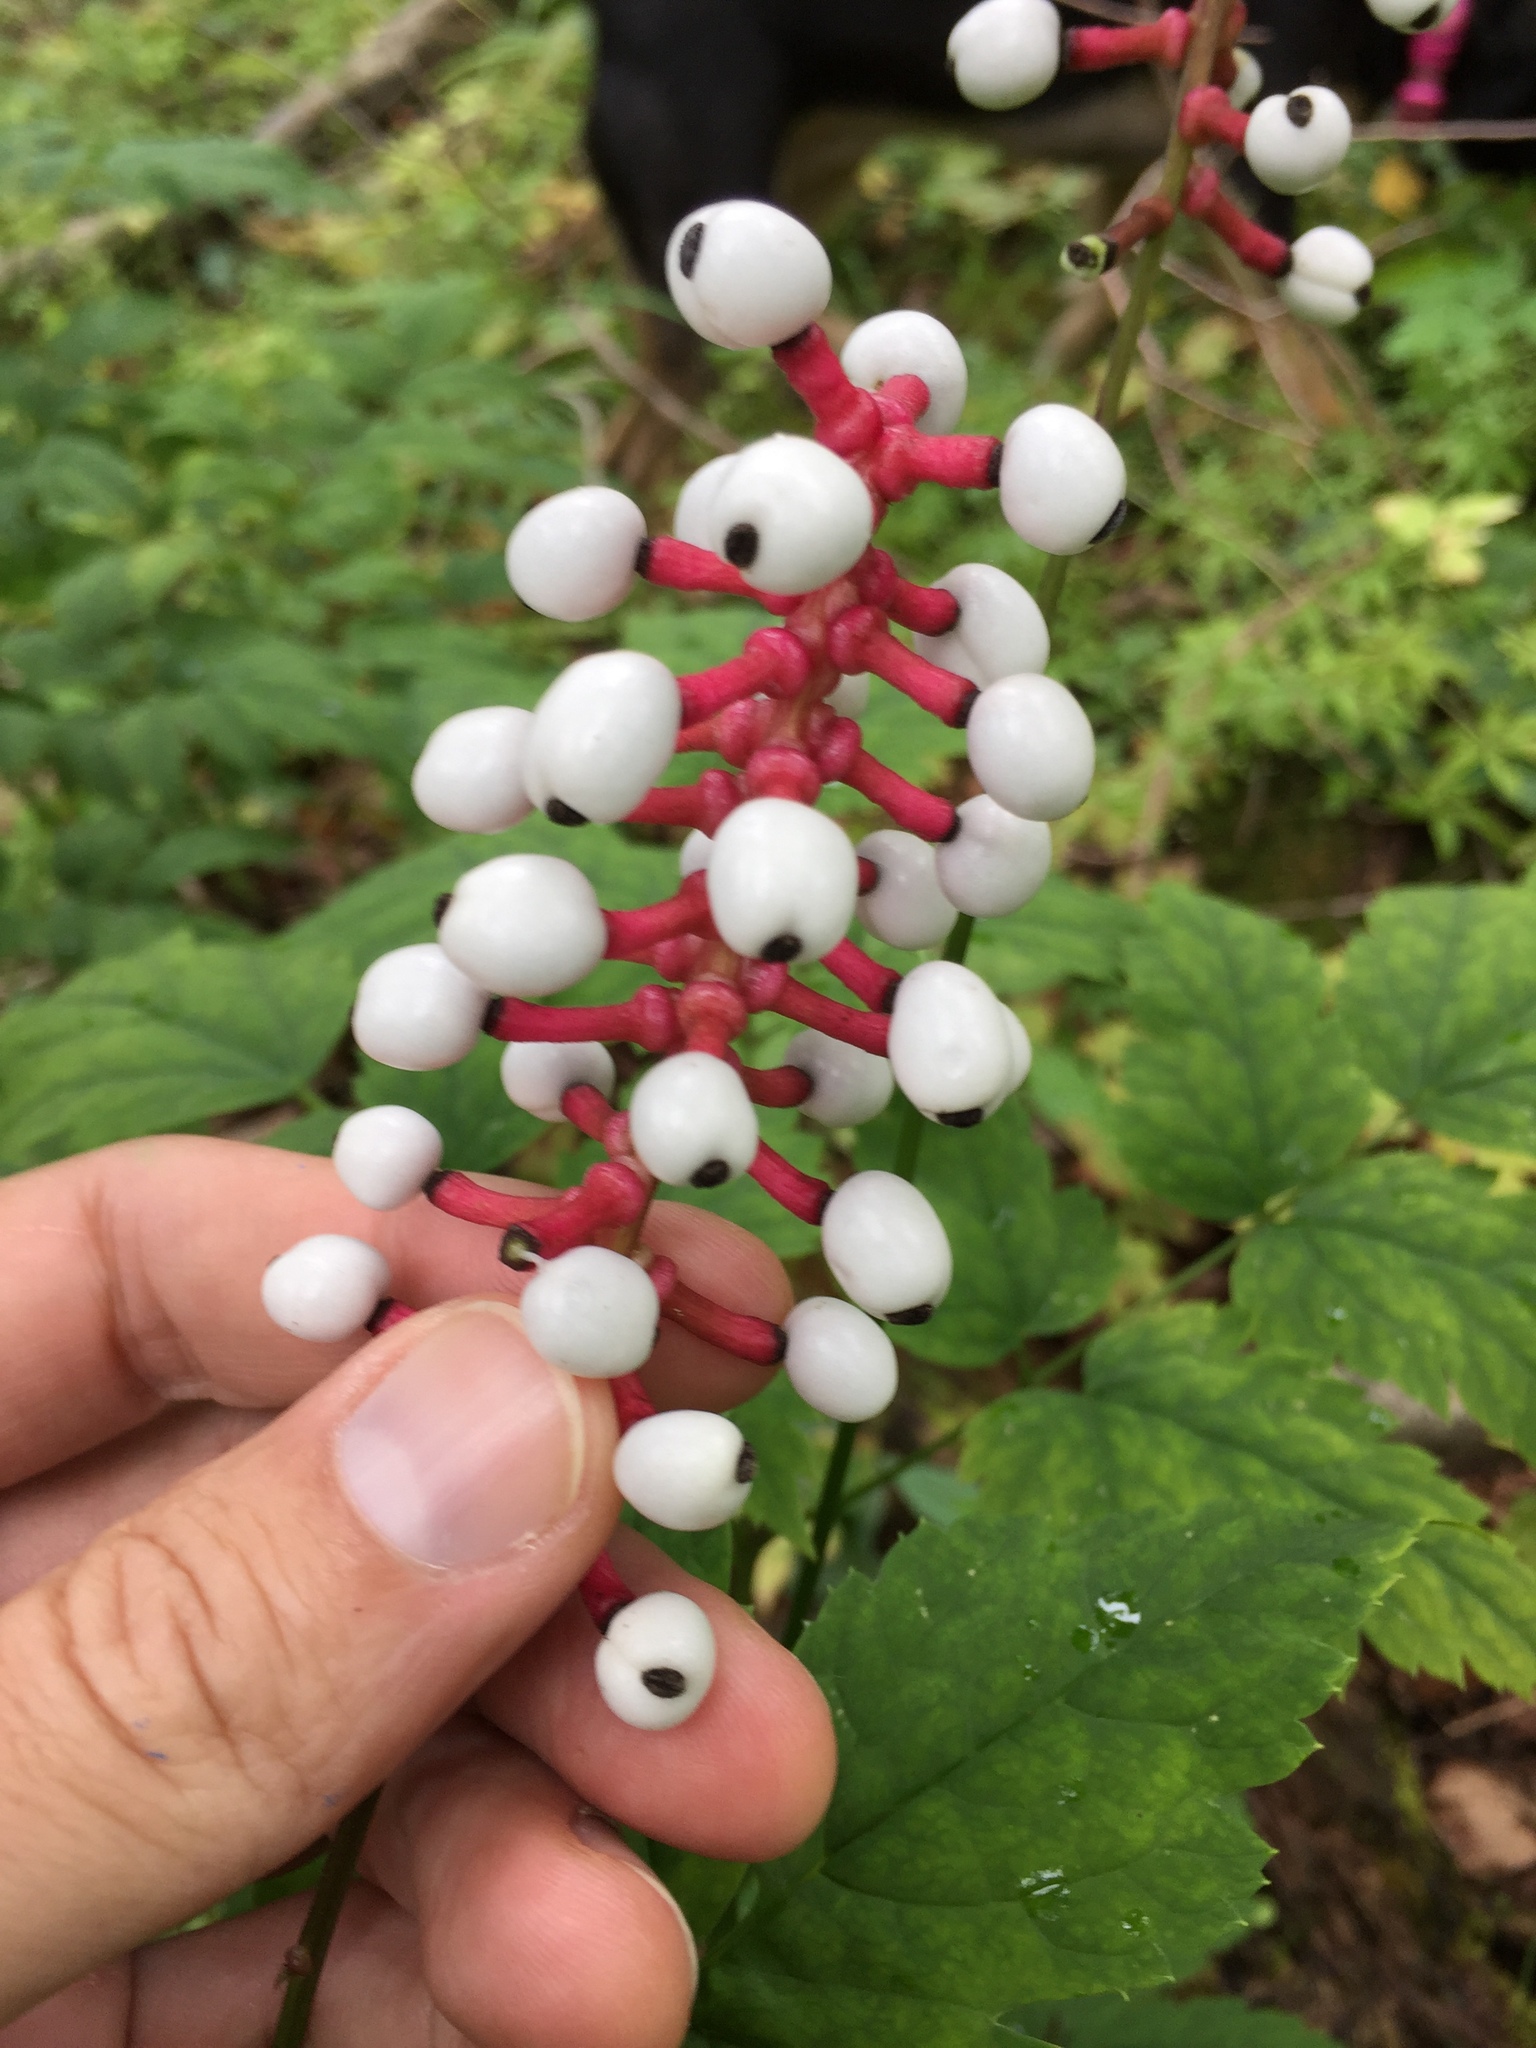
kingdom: Plantae
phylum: Tracheophyta
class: Magnoliopsida
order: Ranunculales
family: Ranunculaceae
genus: Actaea
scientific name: Actaea pachypoda
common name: Doll's-eyes
